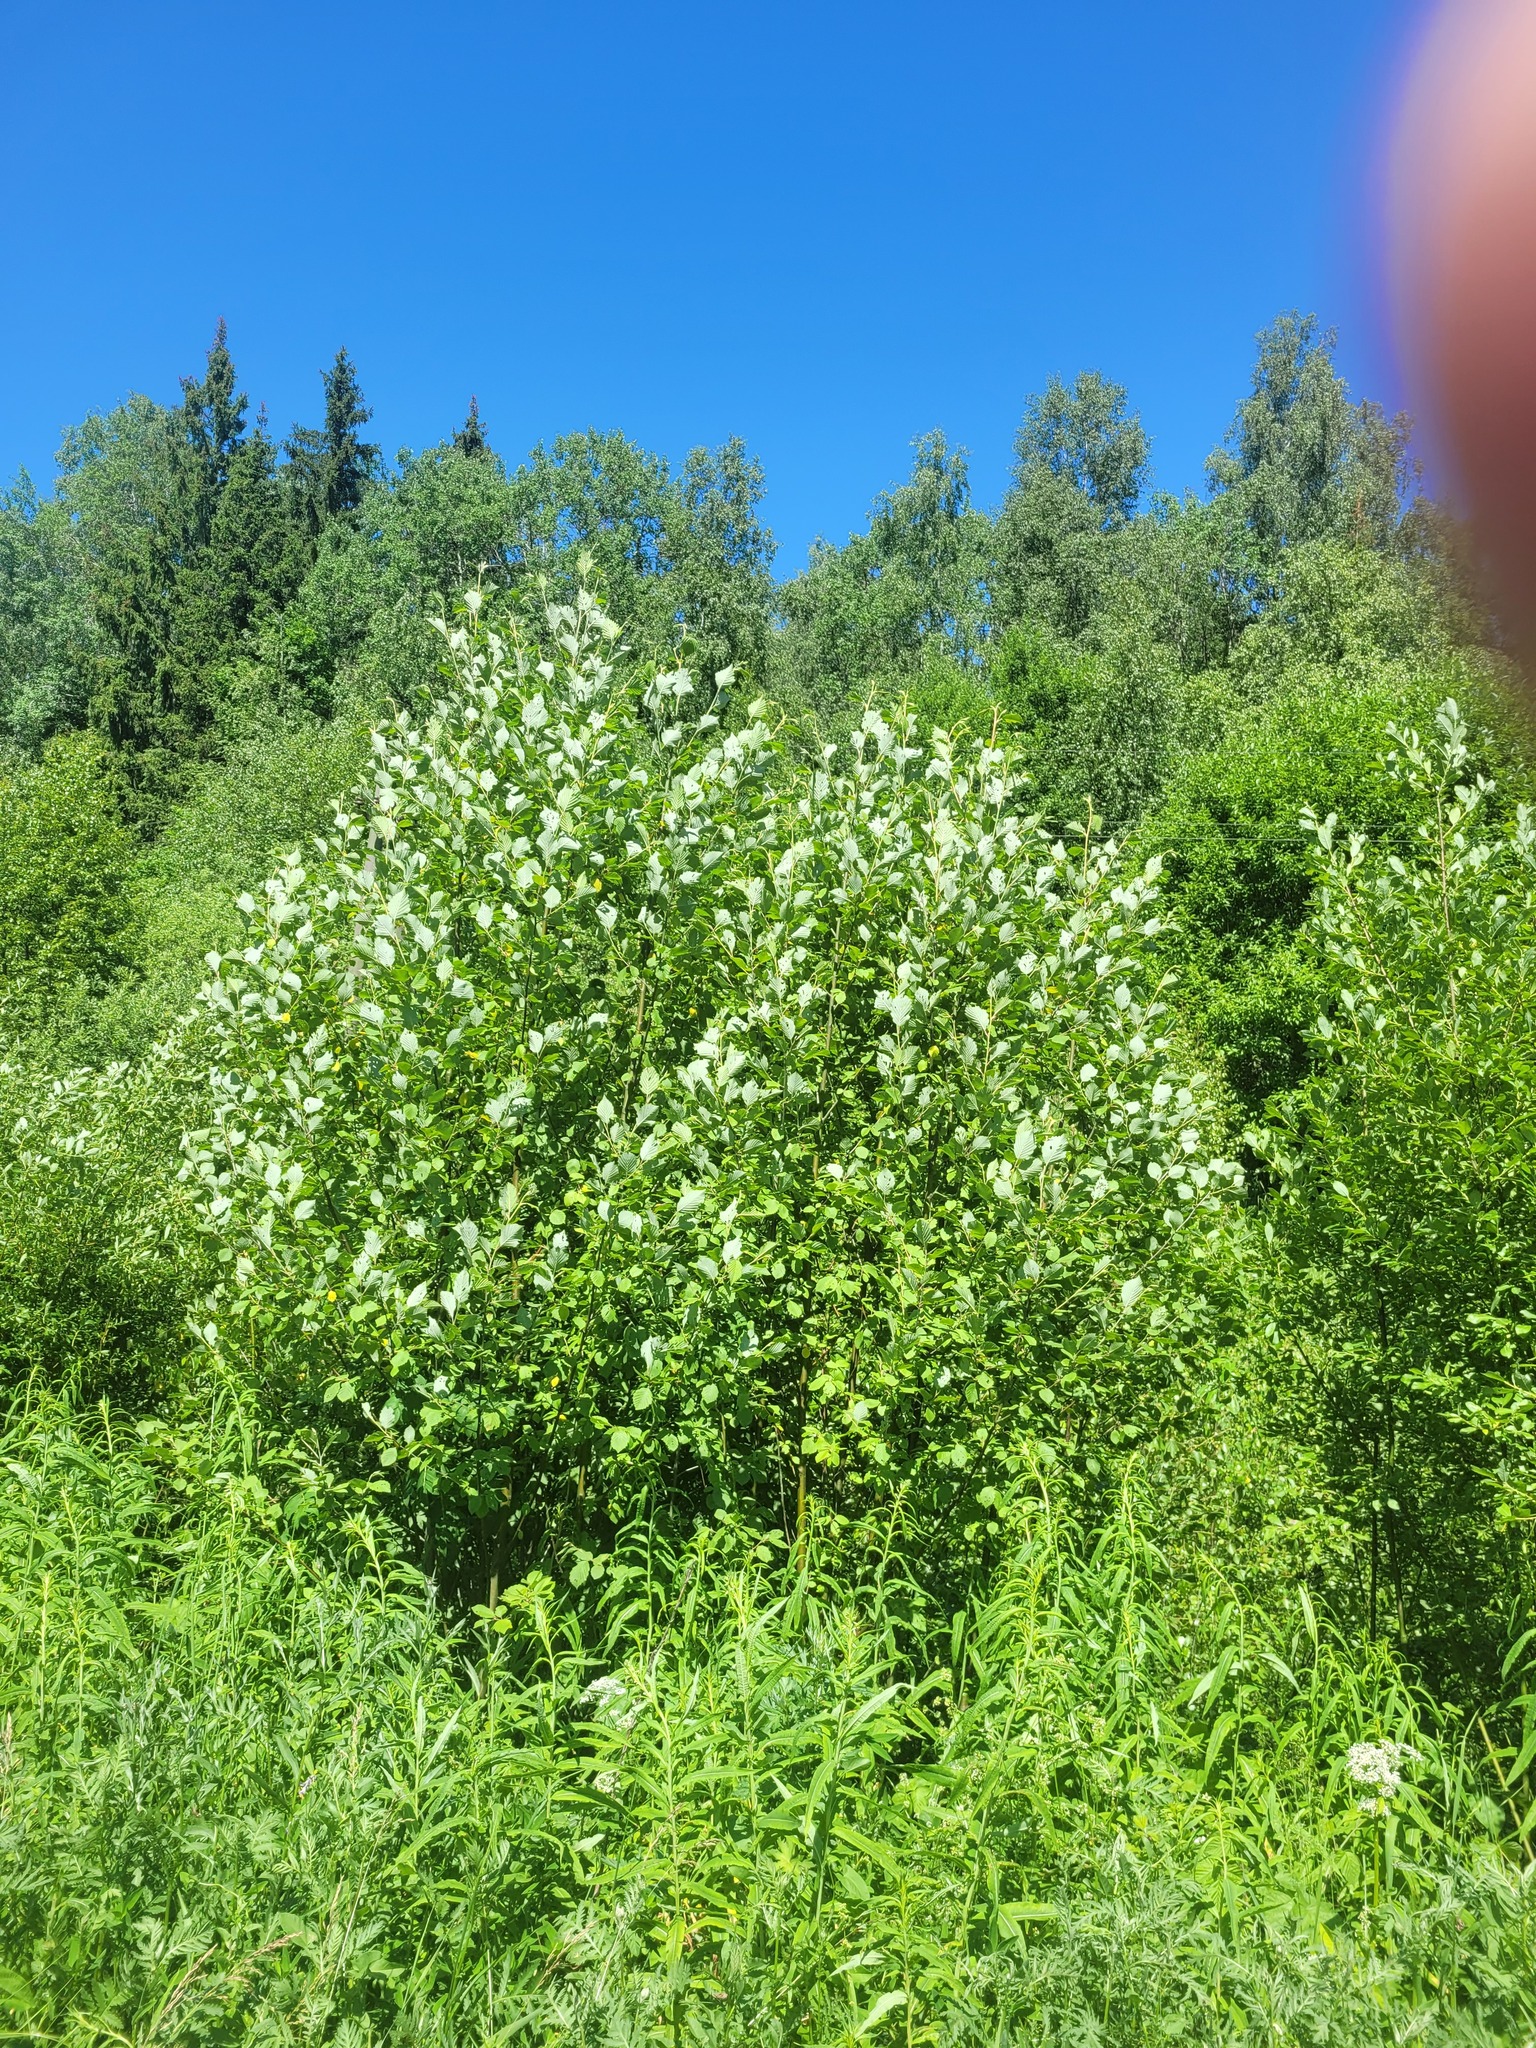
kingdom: Plantae
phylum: Tracheophyta
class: Magnoliopsida
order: Fagales
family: Betulaceae
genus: Alnus
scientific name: Alnus incana
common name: Grey alder
